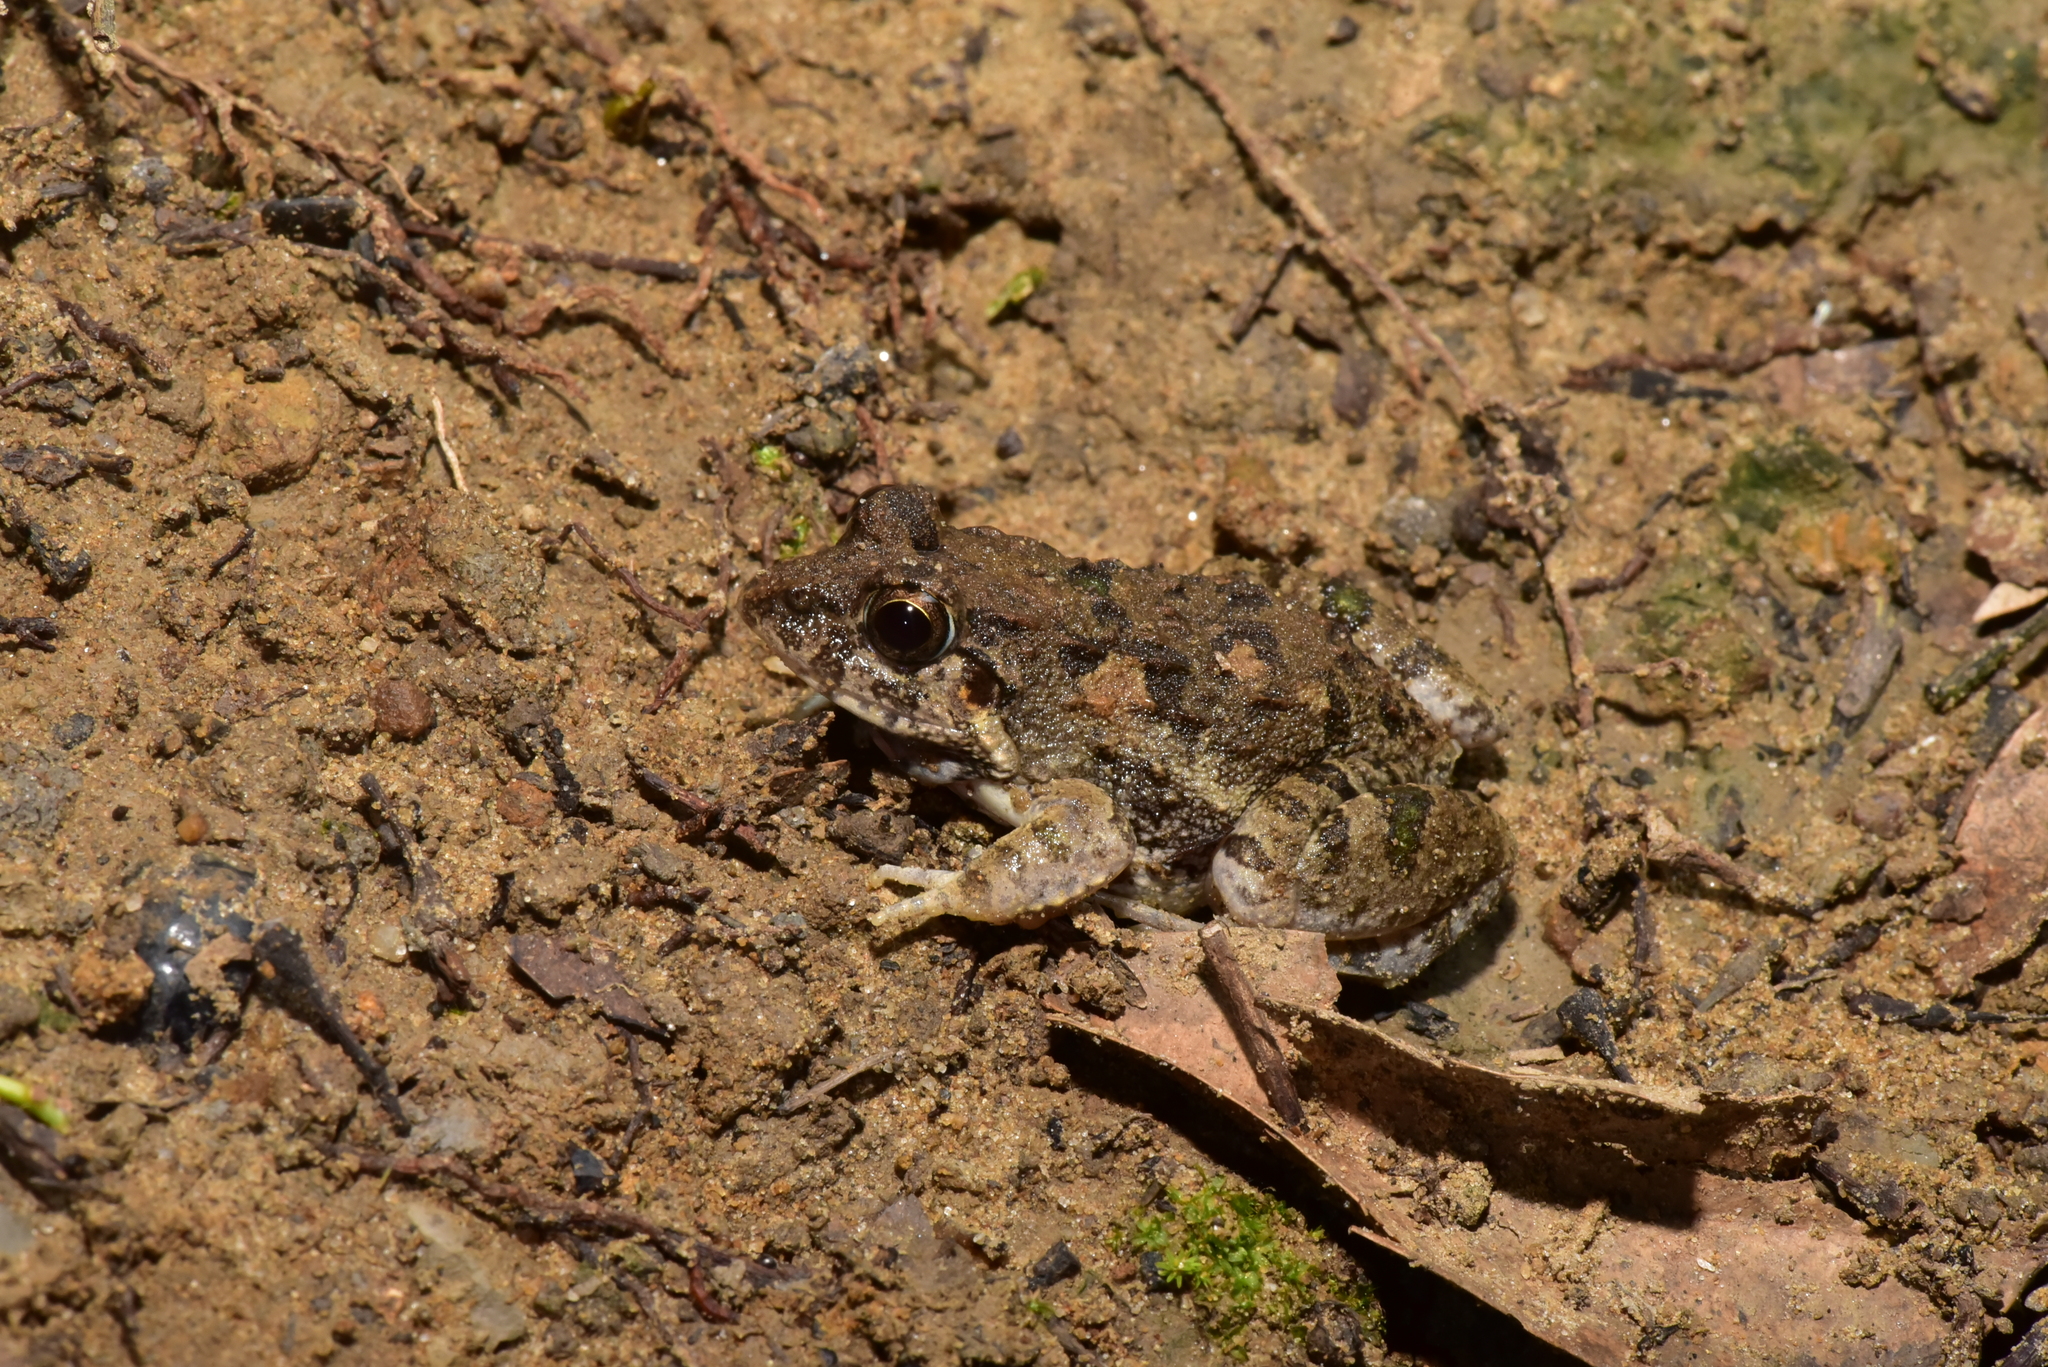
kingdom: Animalia
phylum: Chordata
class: Amphibia
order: Anura
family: Dicroglossidae
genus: Fejervarya
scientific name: Fejervarya limnocharis
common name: Asian grass frog/common pond frog/field frog/grass frog/indian rice frog
